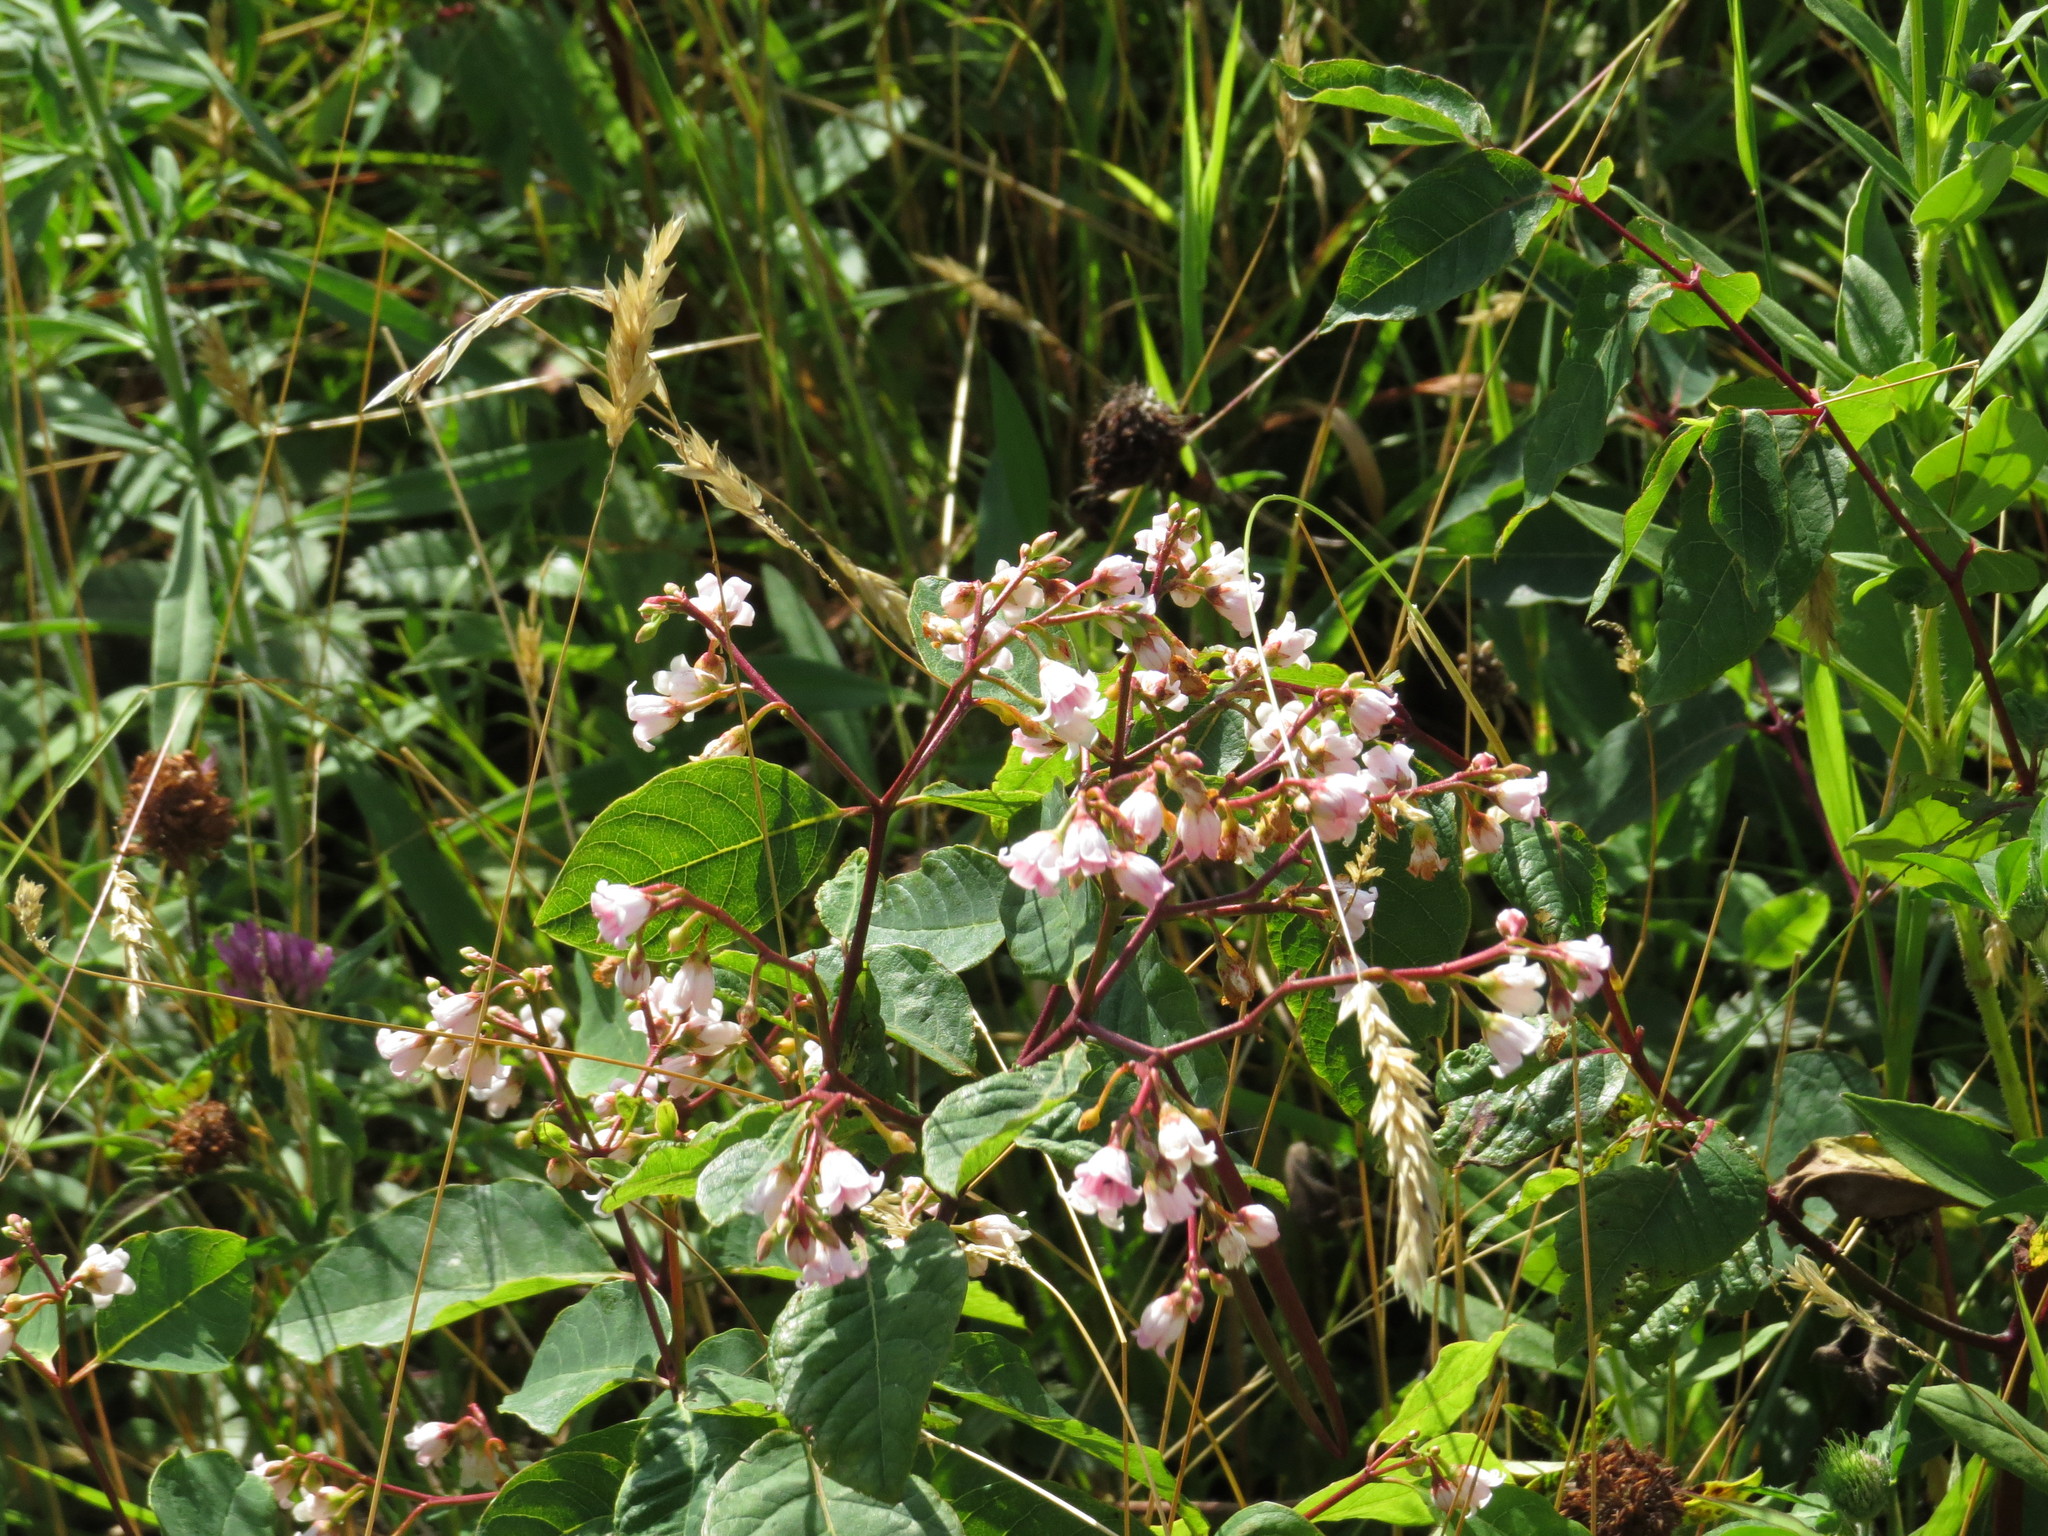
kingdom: Plantae
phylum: Tracheophyta
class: Magnoliopsida
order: Gentianales
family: Apocynaceae
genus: Apocynum
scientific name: Apocynum androsaemifolium
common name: Spreading dogbane
